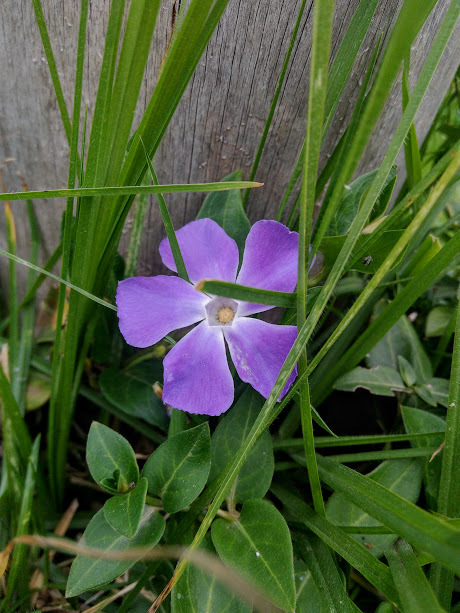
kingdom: Plantae
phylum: Tracheophyta
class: Magnoliopsida
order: Gentianales
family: Apocynaceae
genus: Vinca
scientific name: Vinca major
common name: Greater periwinkle
